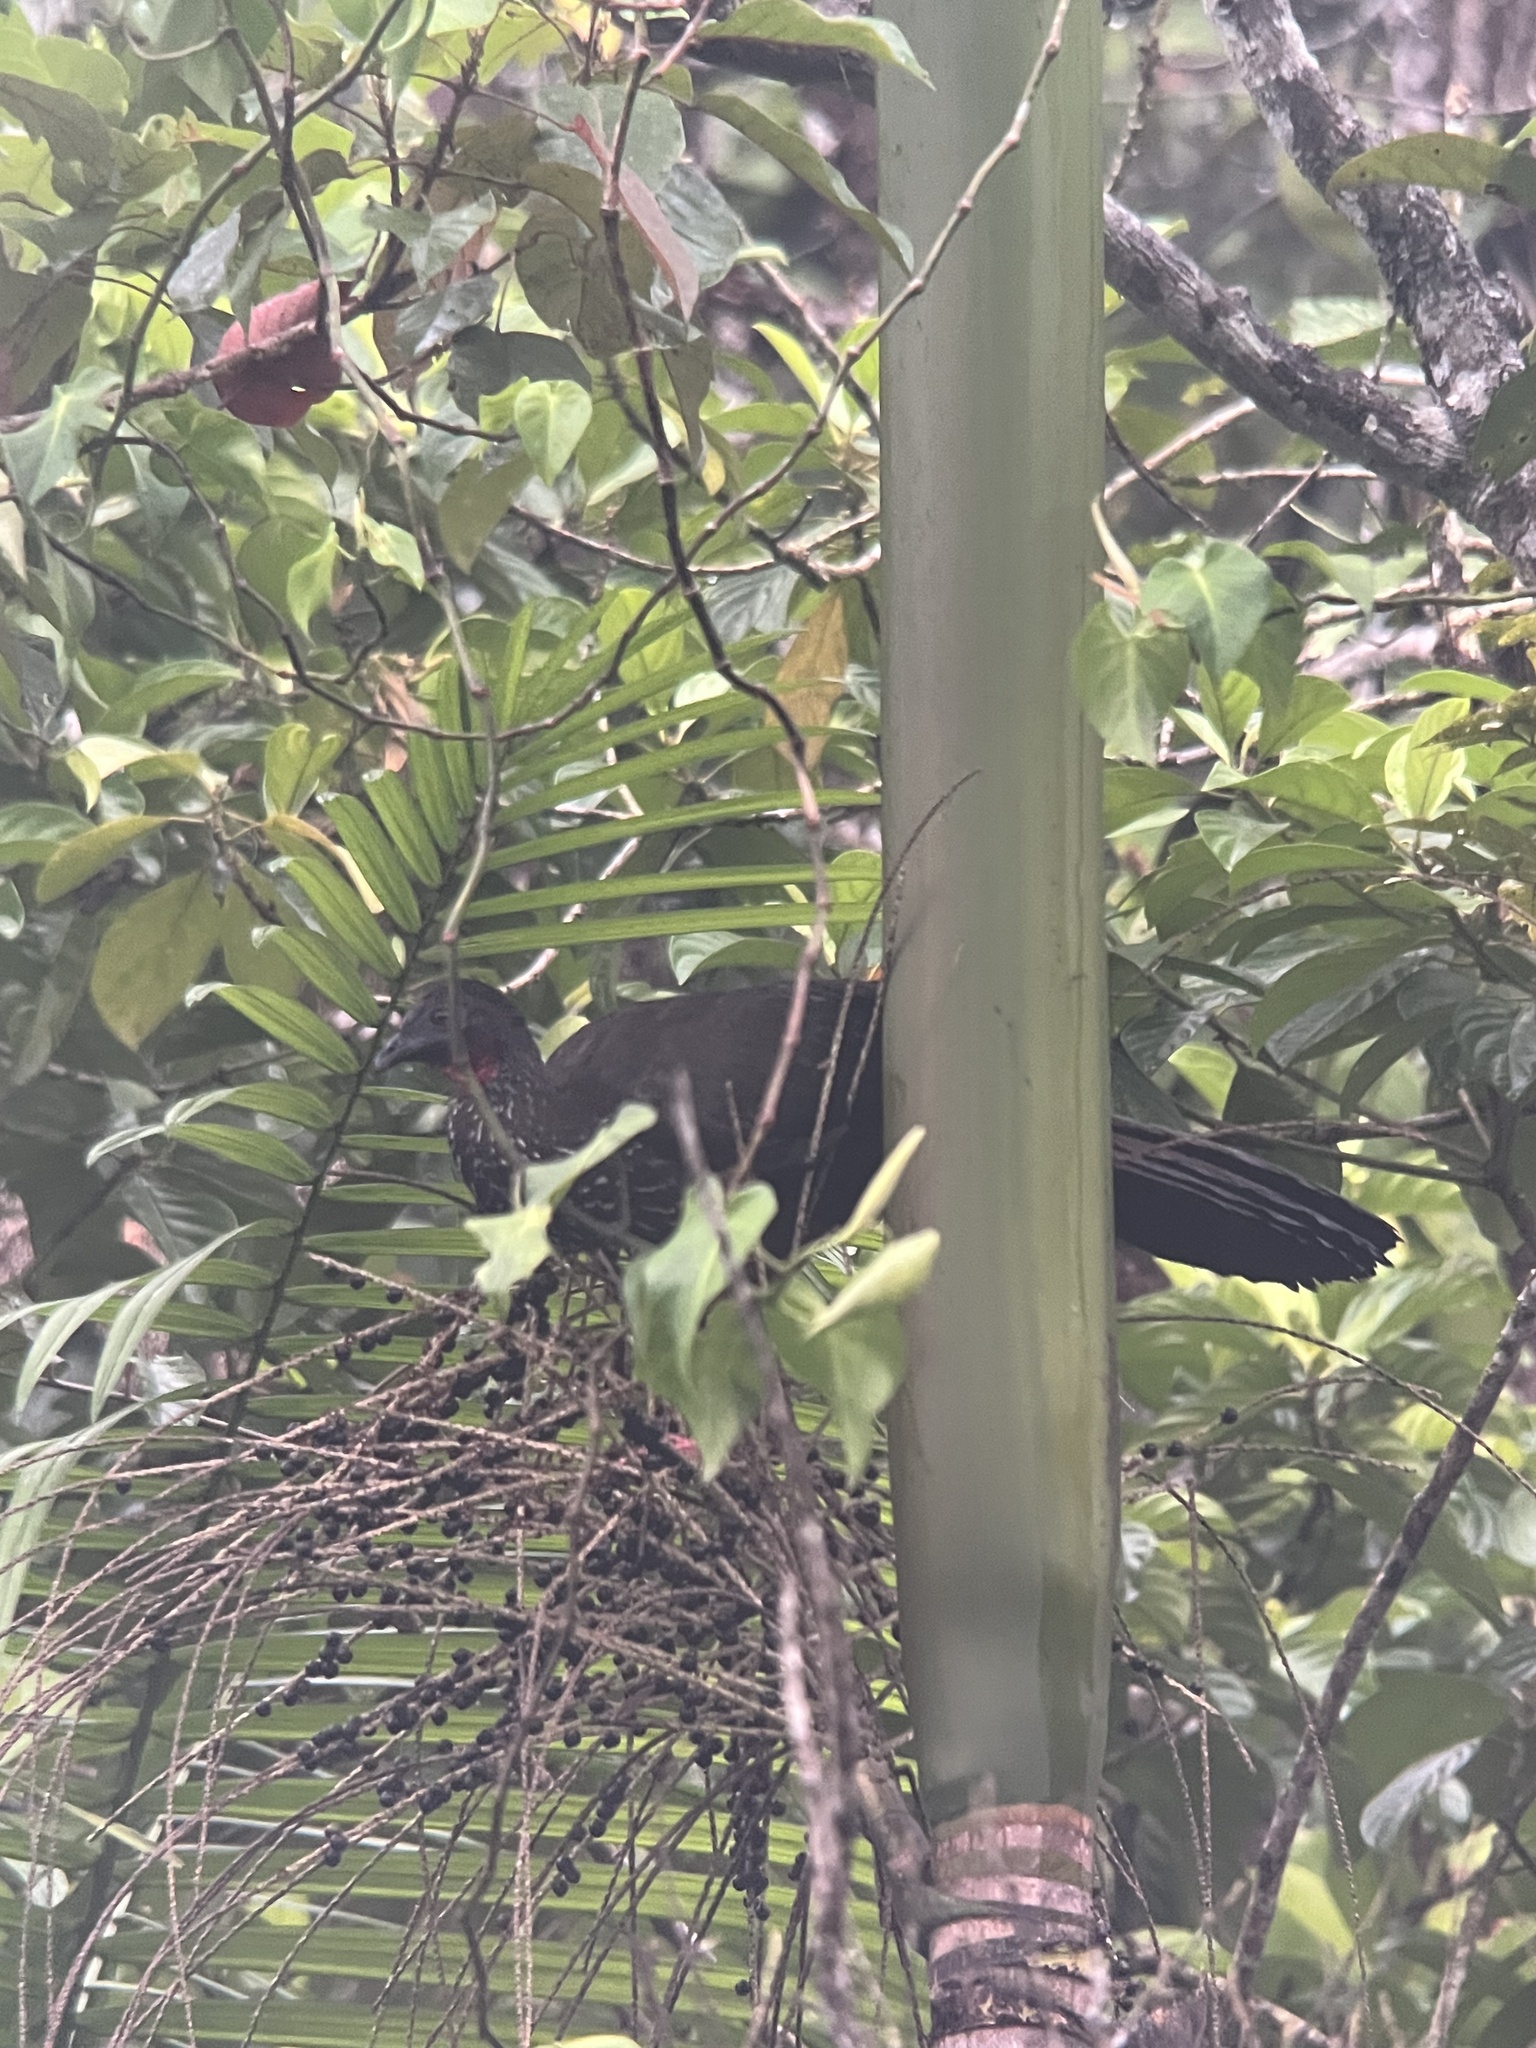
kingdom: Animalia
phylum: Chordata
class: Aves
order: Galliformes
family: Cracidae
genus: Penelope
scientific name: Penelope purpurascens
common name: Crested guan
